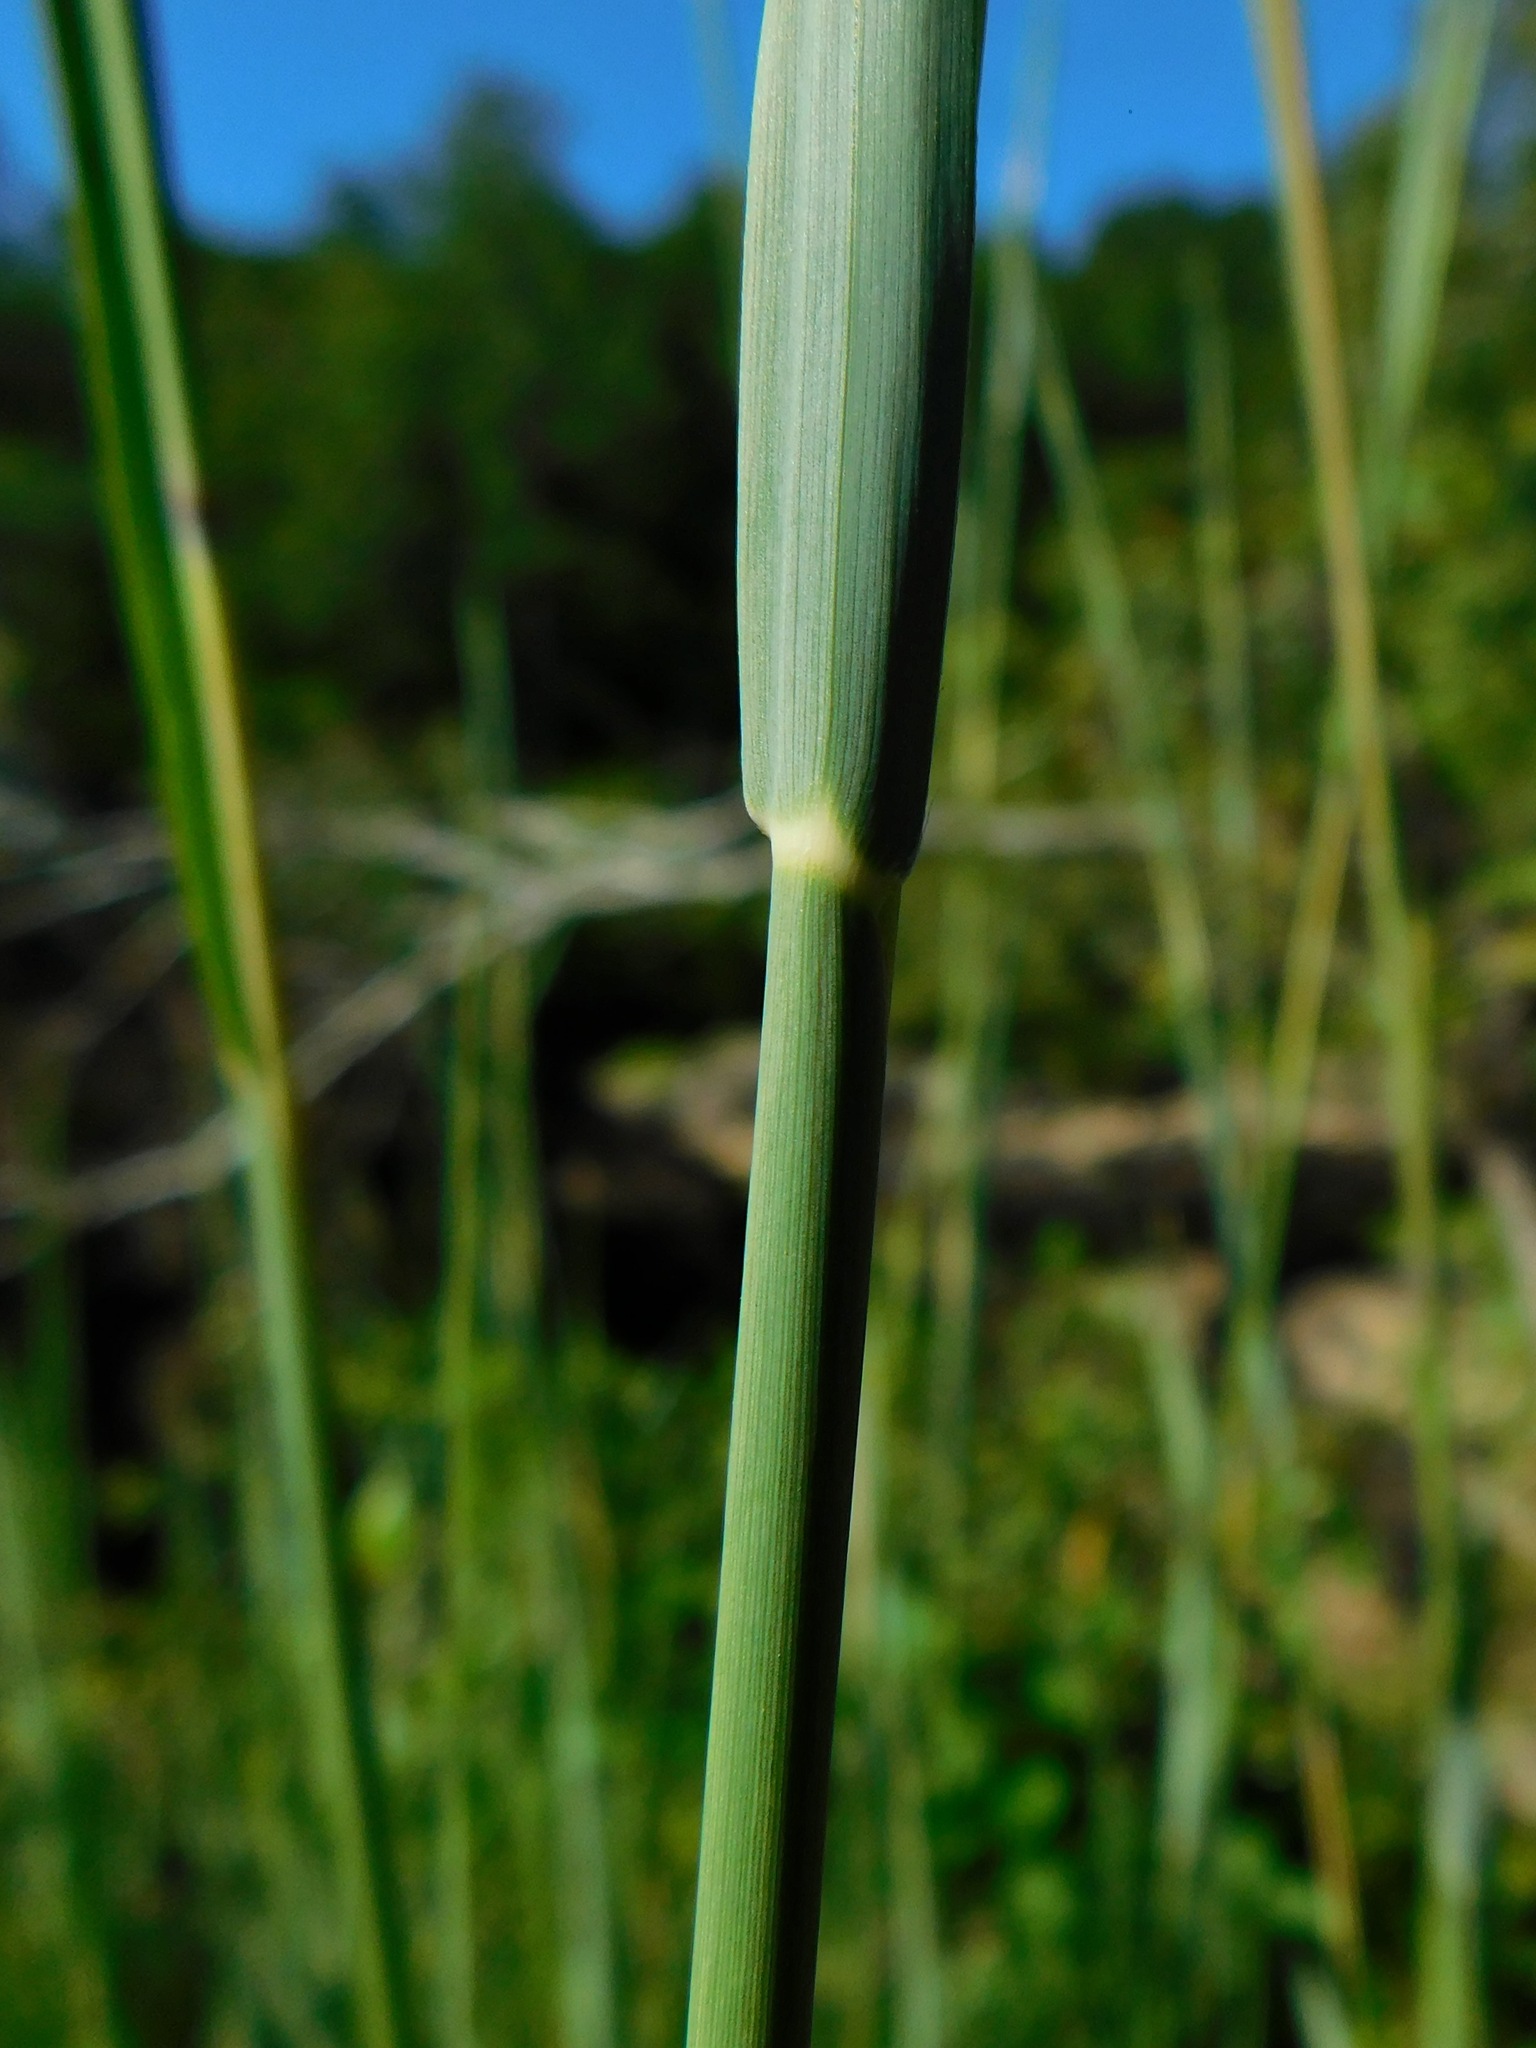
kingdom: Plantae
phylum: Tracheophyta
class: Liliopsida
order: Poales
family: Poaceae
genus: Andropogon
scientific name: Andropogon gerardi
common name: Big bluestem
